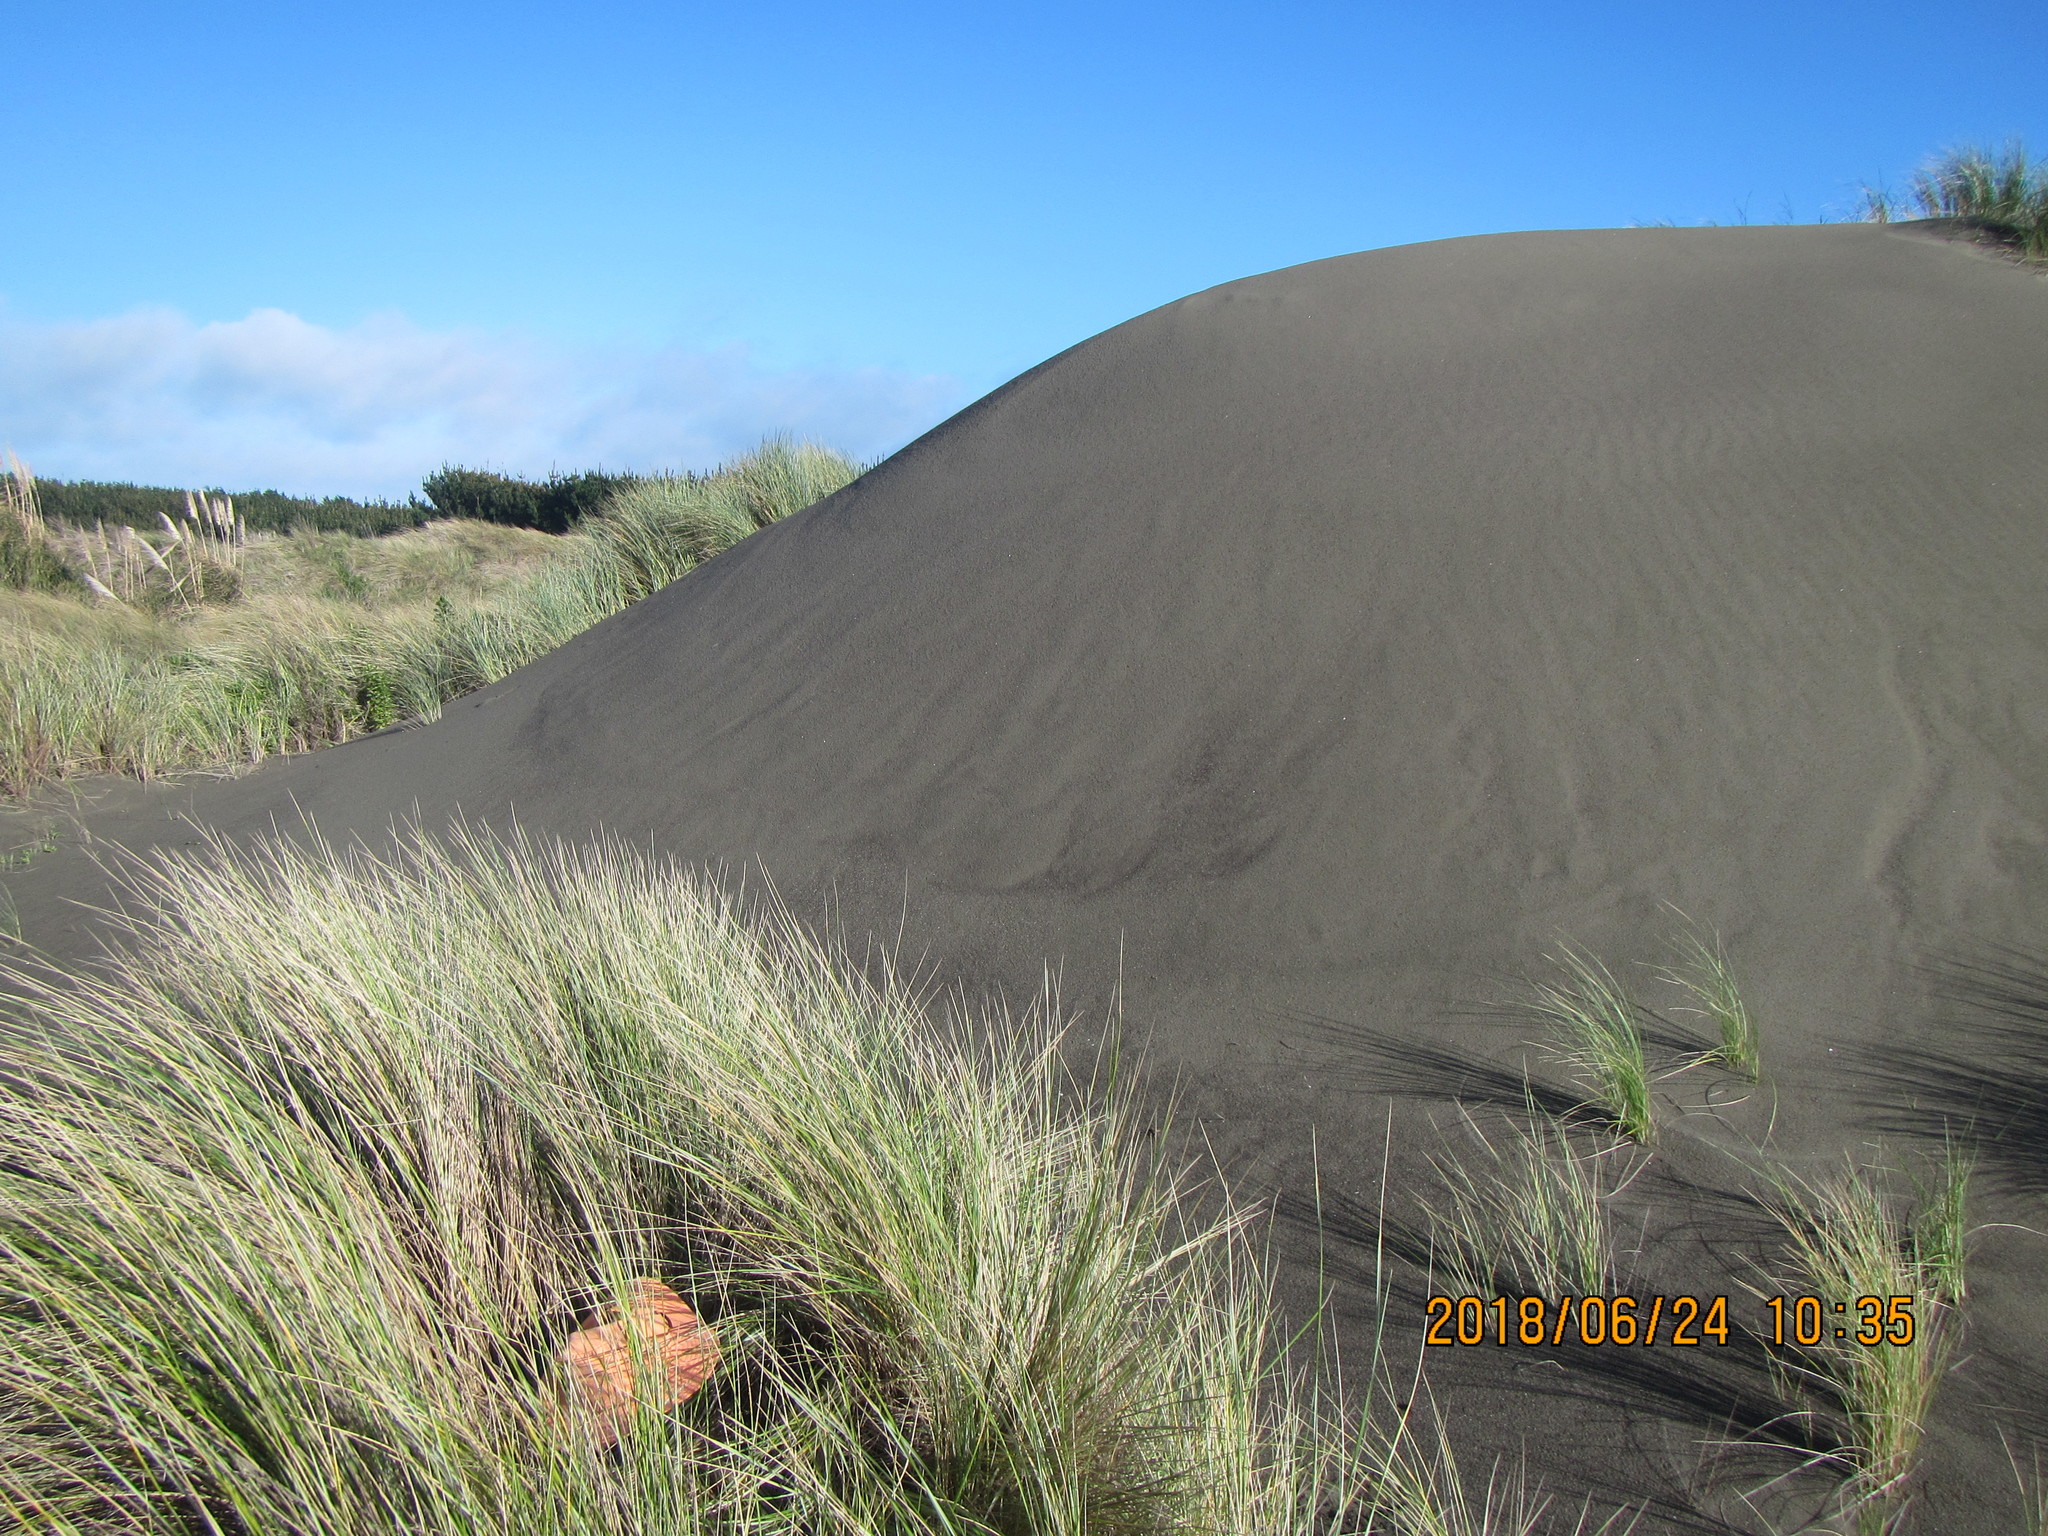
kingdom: Animalia
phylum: Arthropoda
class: Arachnida
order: Araneae
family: Thomisidae
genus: Sidymella
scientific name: Sidymella trapezia
